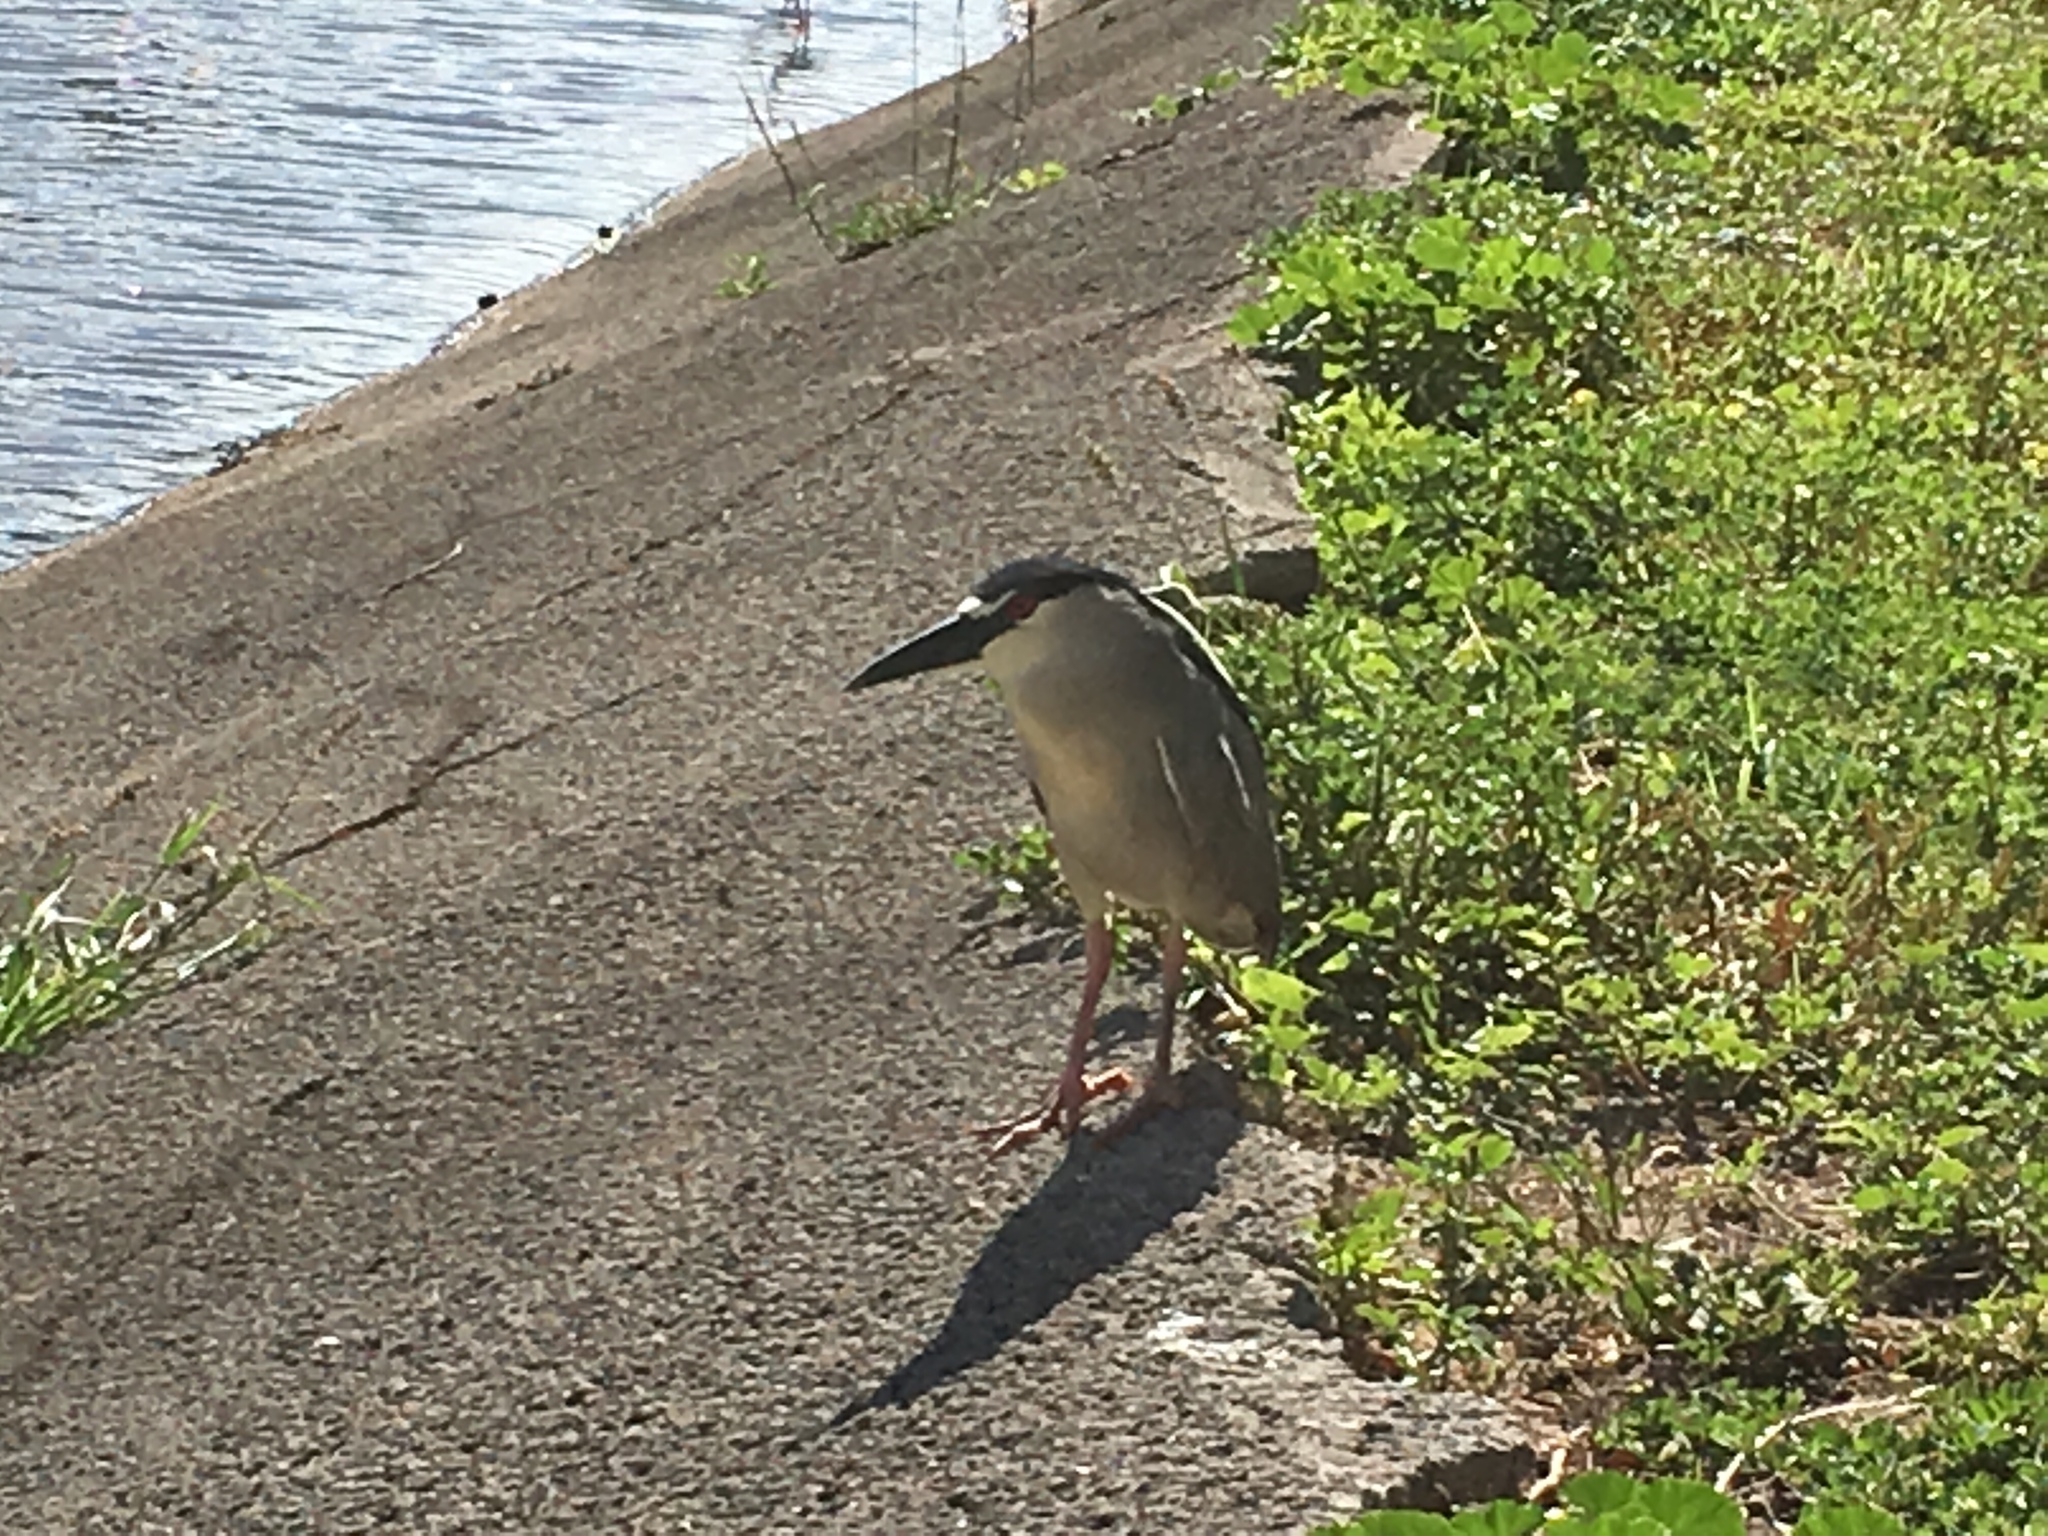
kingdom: Animalia
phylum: Chordata
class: Aves
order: Pelecaniformes
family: Ardeidae
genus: Nycticorax
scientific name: Nycticorax nycticorax
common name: Black-crowned night heron
